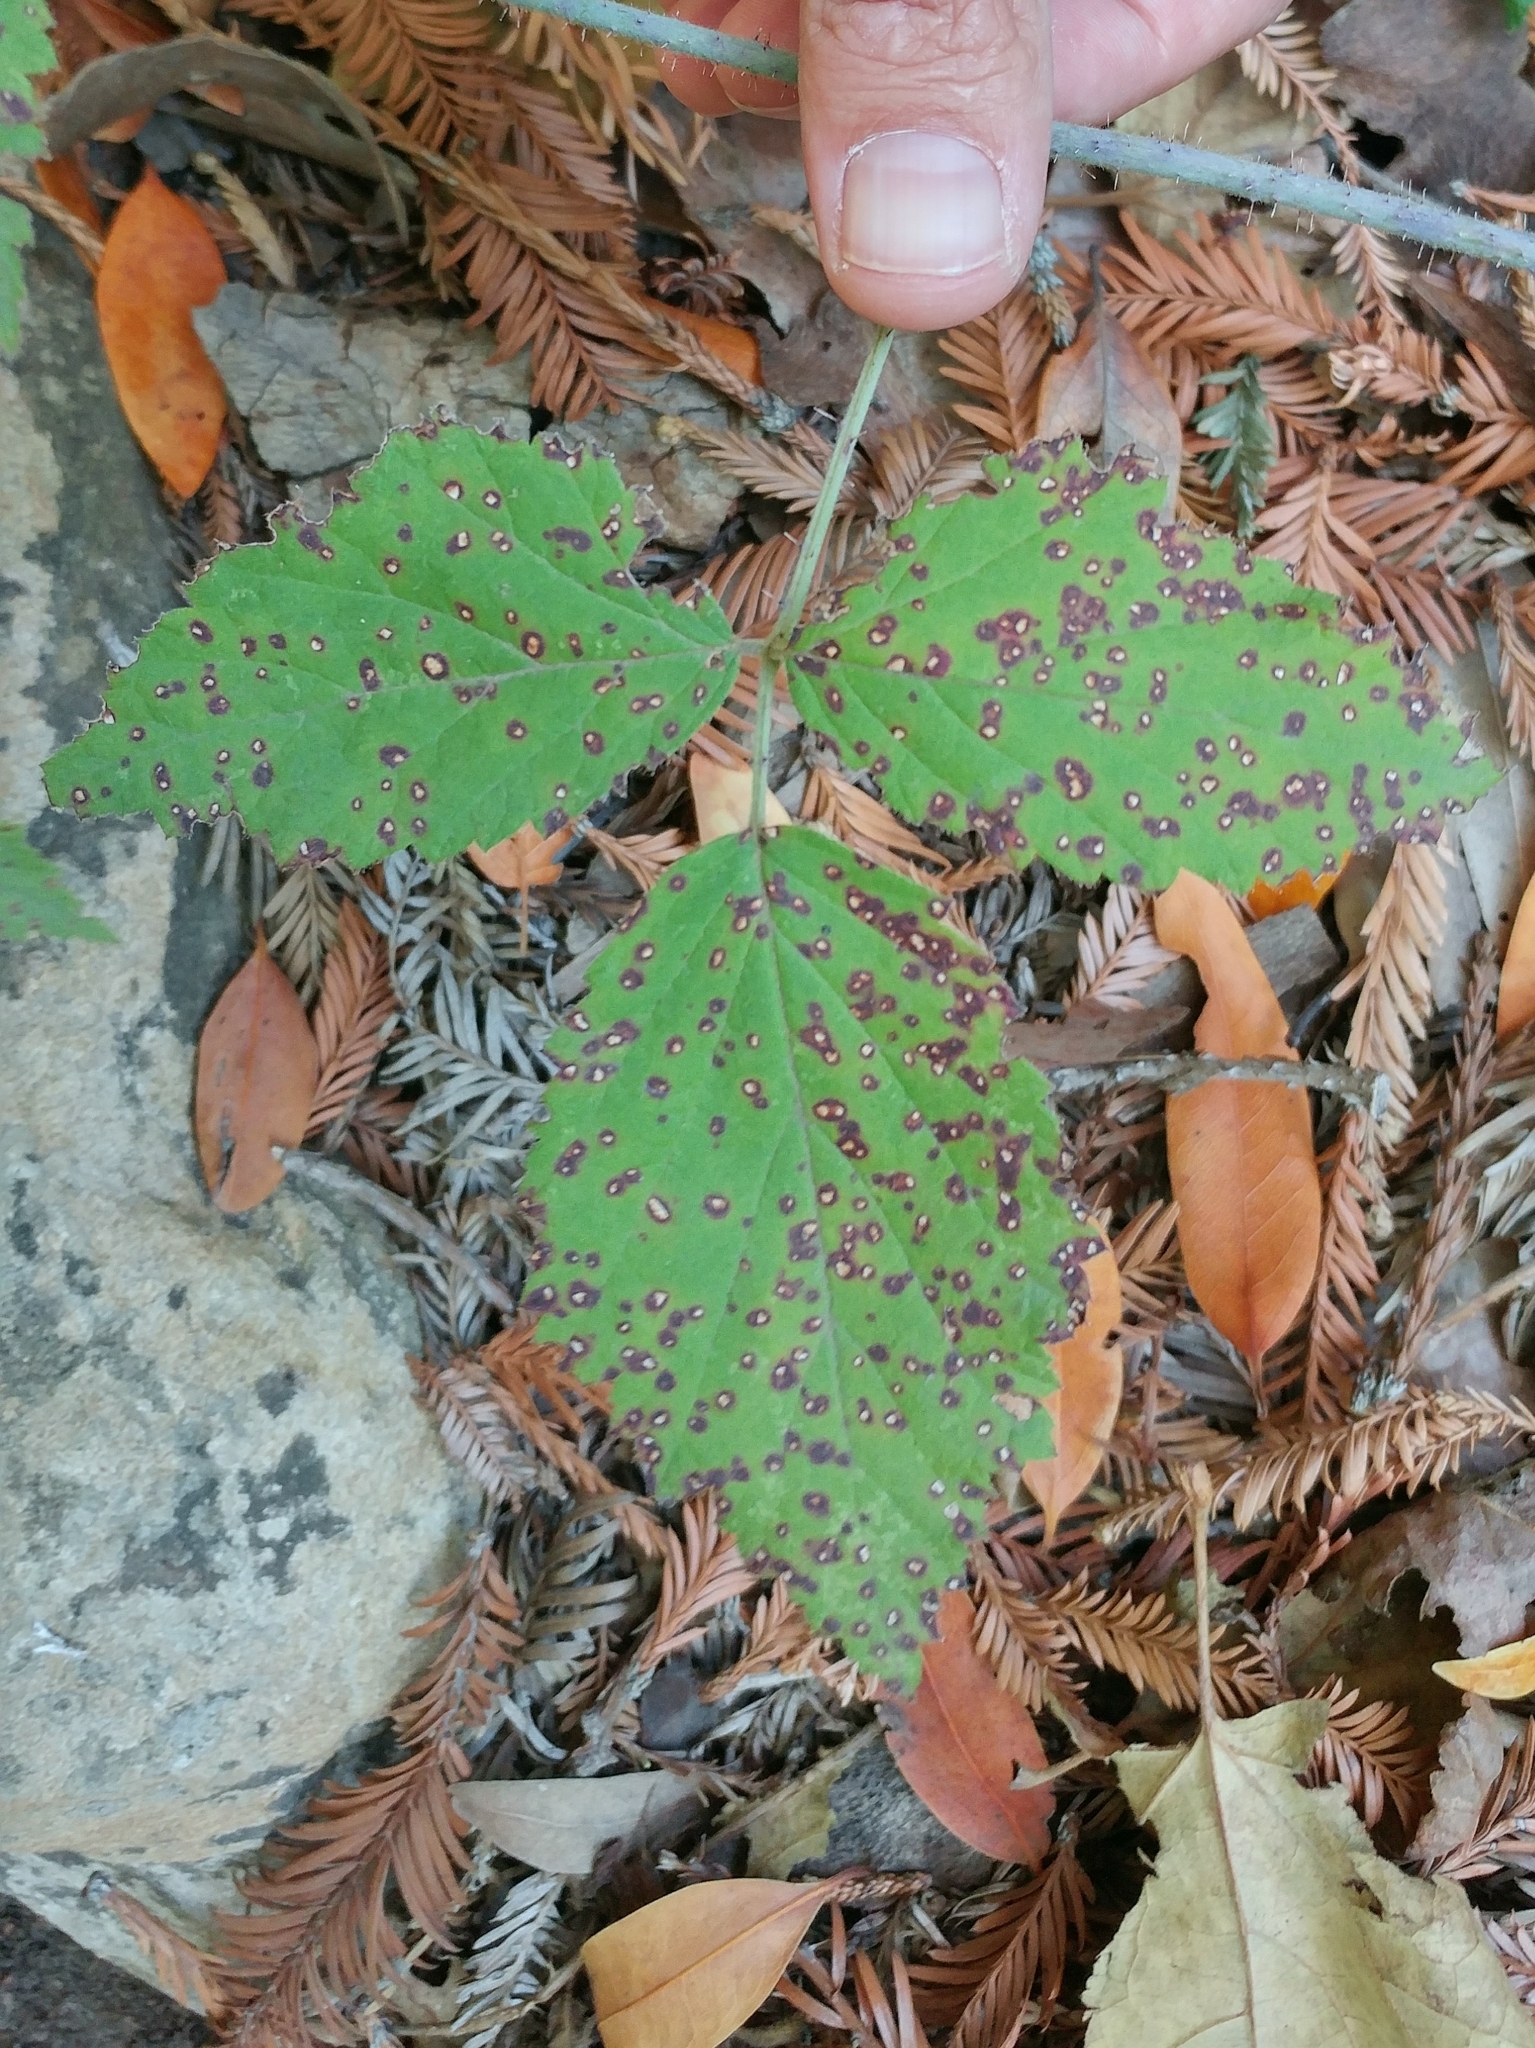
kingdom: Plantae
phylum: Tracheophyta
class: Magnoliopsida
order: Rosales
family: Rosaceae
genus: Rubus
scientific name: Rubus ursinus
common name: Pacific blackberry
